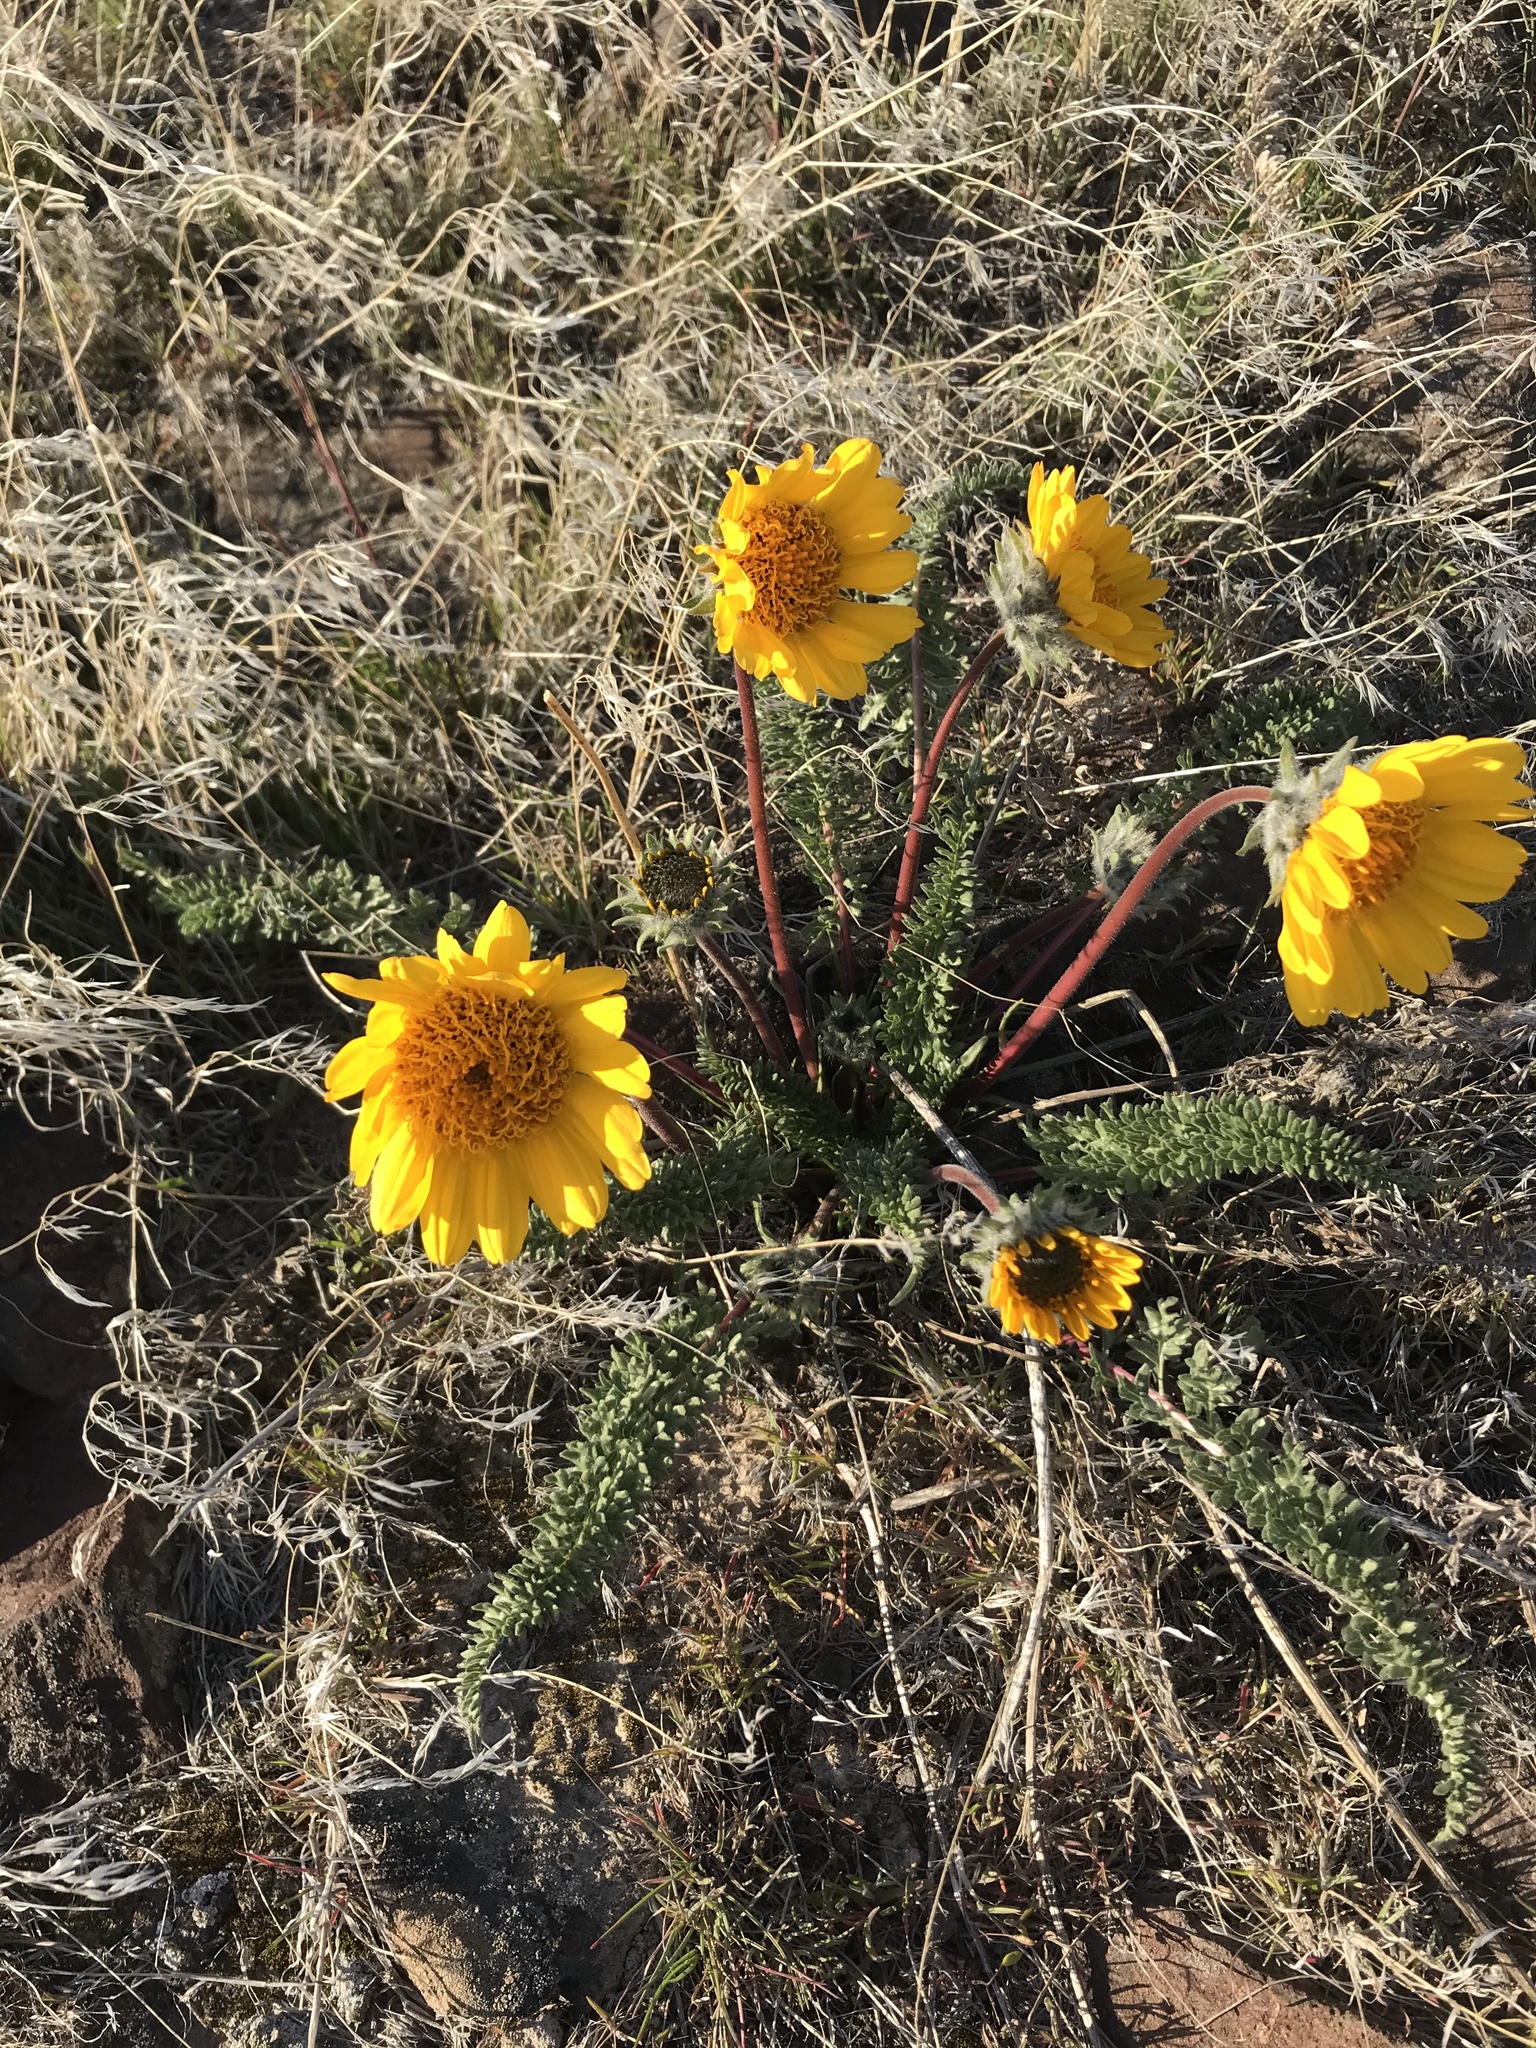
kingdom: Plantae
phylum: Tracheophyta
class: Magnoliopsida
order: Asterales
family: Asteraceae
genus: Balsamorhiza
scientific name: Balsamorhiza hookeri
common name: Hooker's balsamroot
